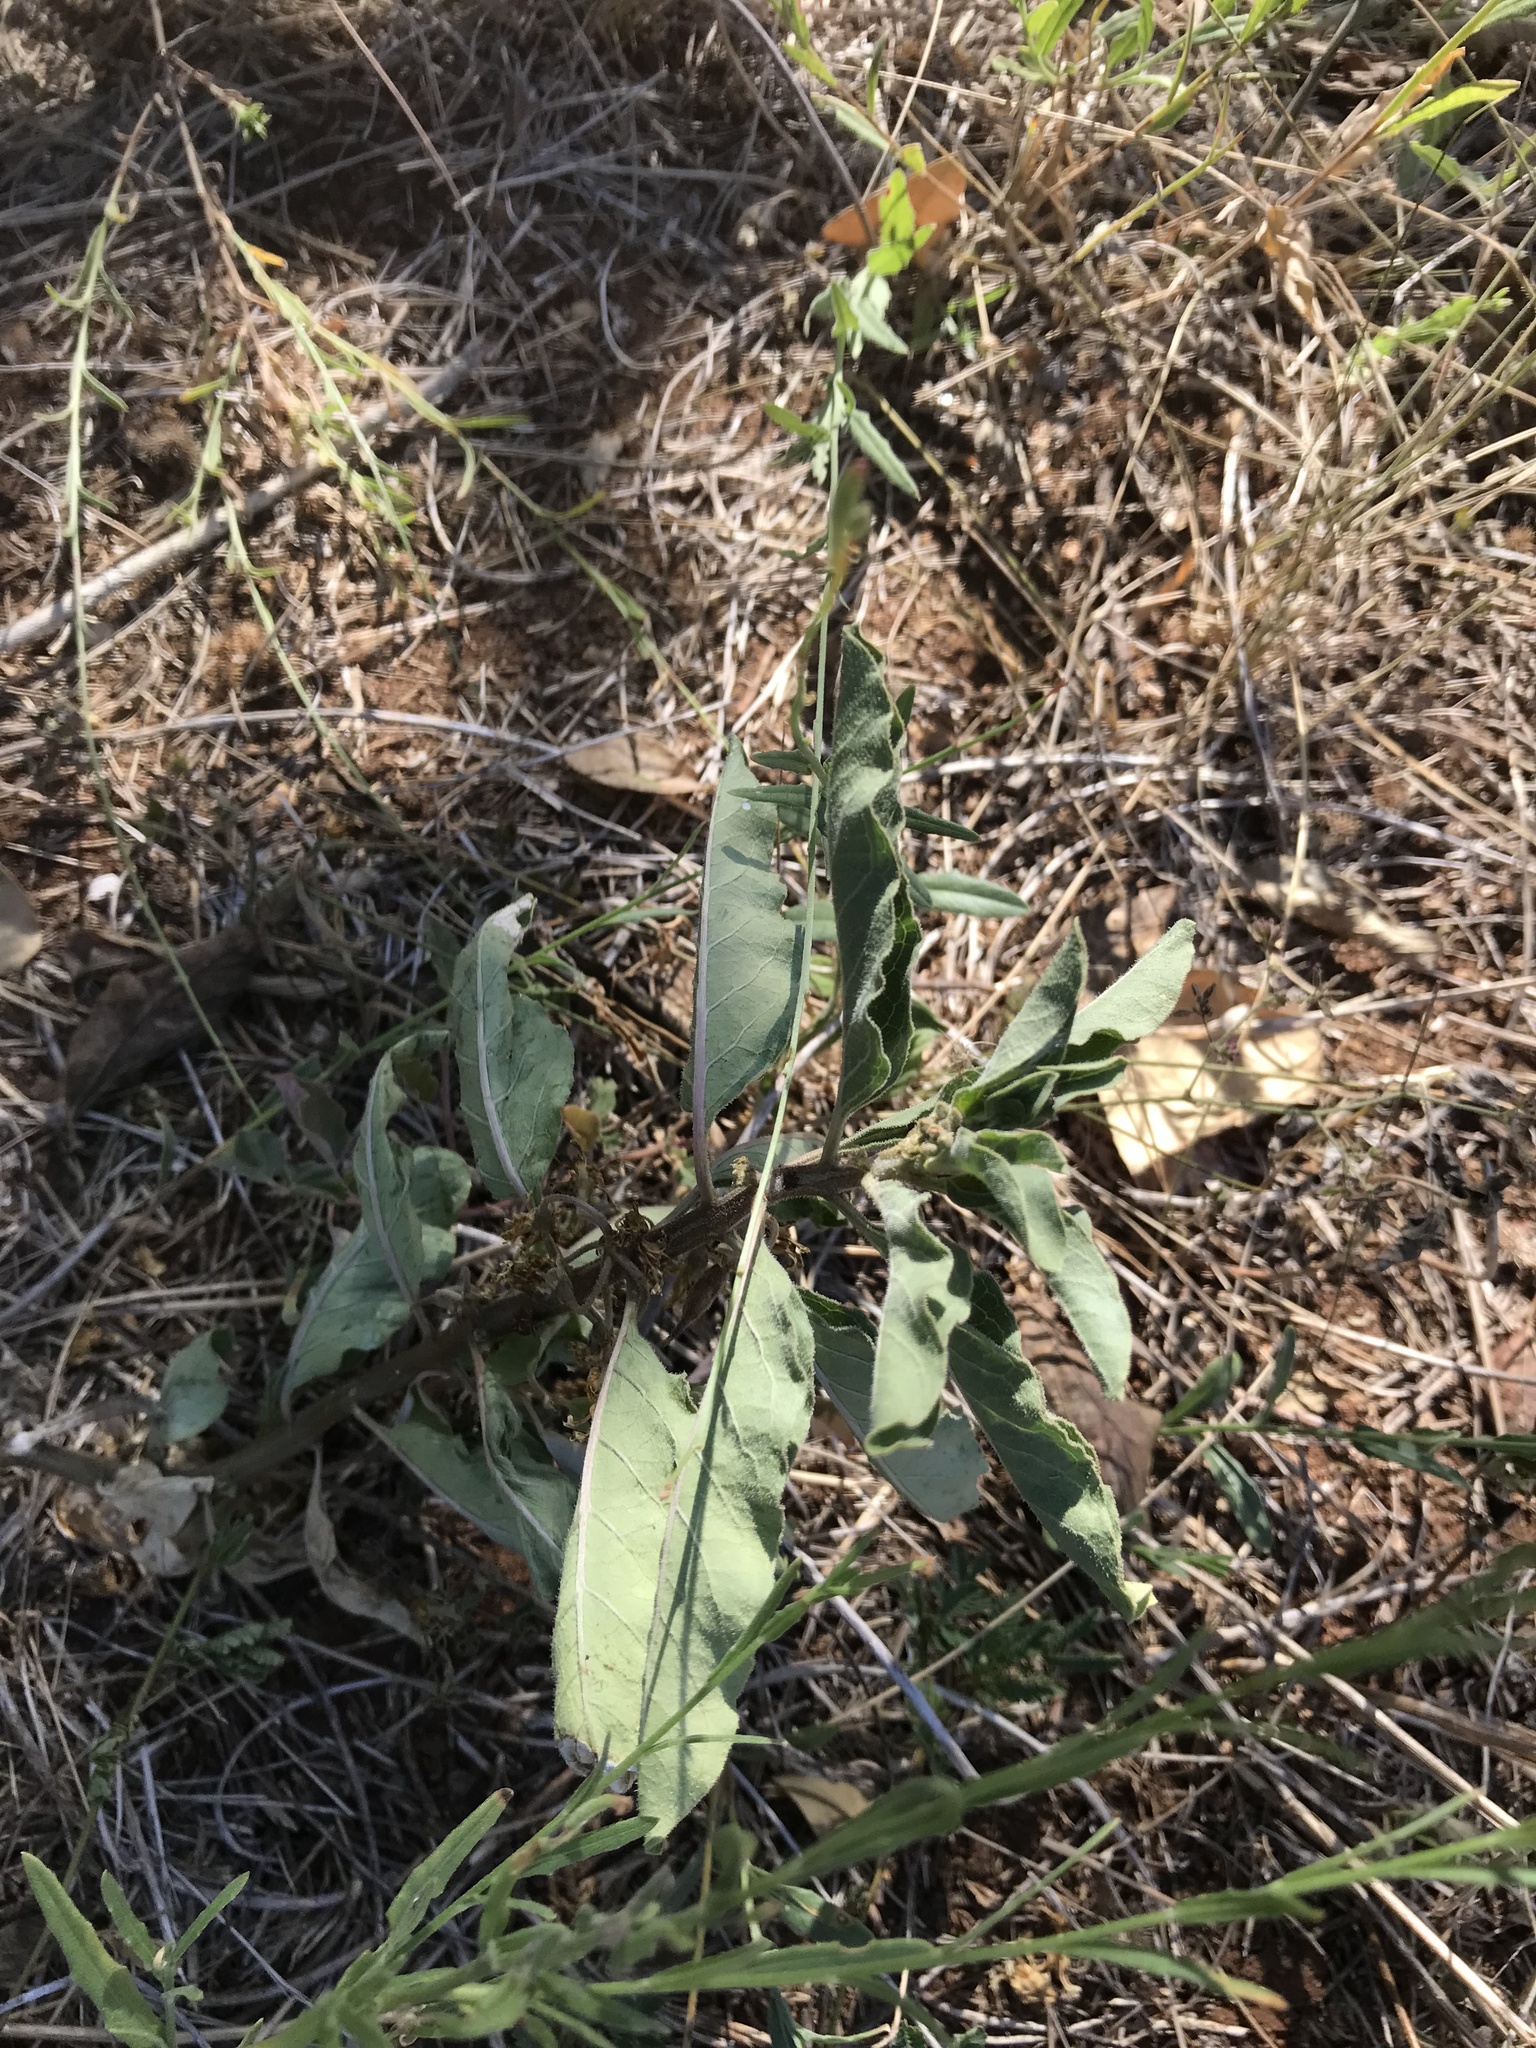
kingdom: Plantae
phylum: Tracheophyta
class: Magnoliopsida
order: Gentianales
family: Apocynaceae
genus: Asclepias
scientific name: Asclepias oenotheroides
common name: Zizotes milkweed
